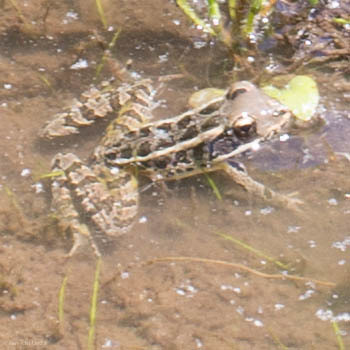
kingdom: Animalia
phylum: Chordata
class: Amphibia
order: Anura
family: Ranidae
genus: Lithobates
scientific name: Lithobates palustris
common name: Pickerel frog
